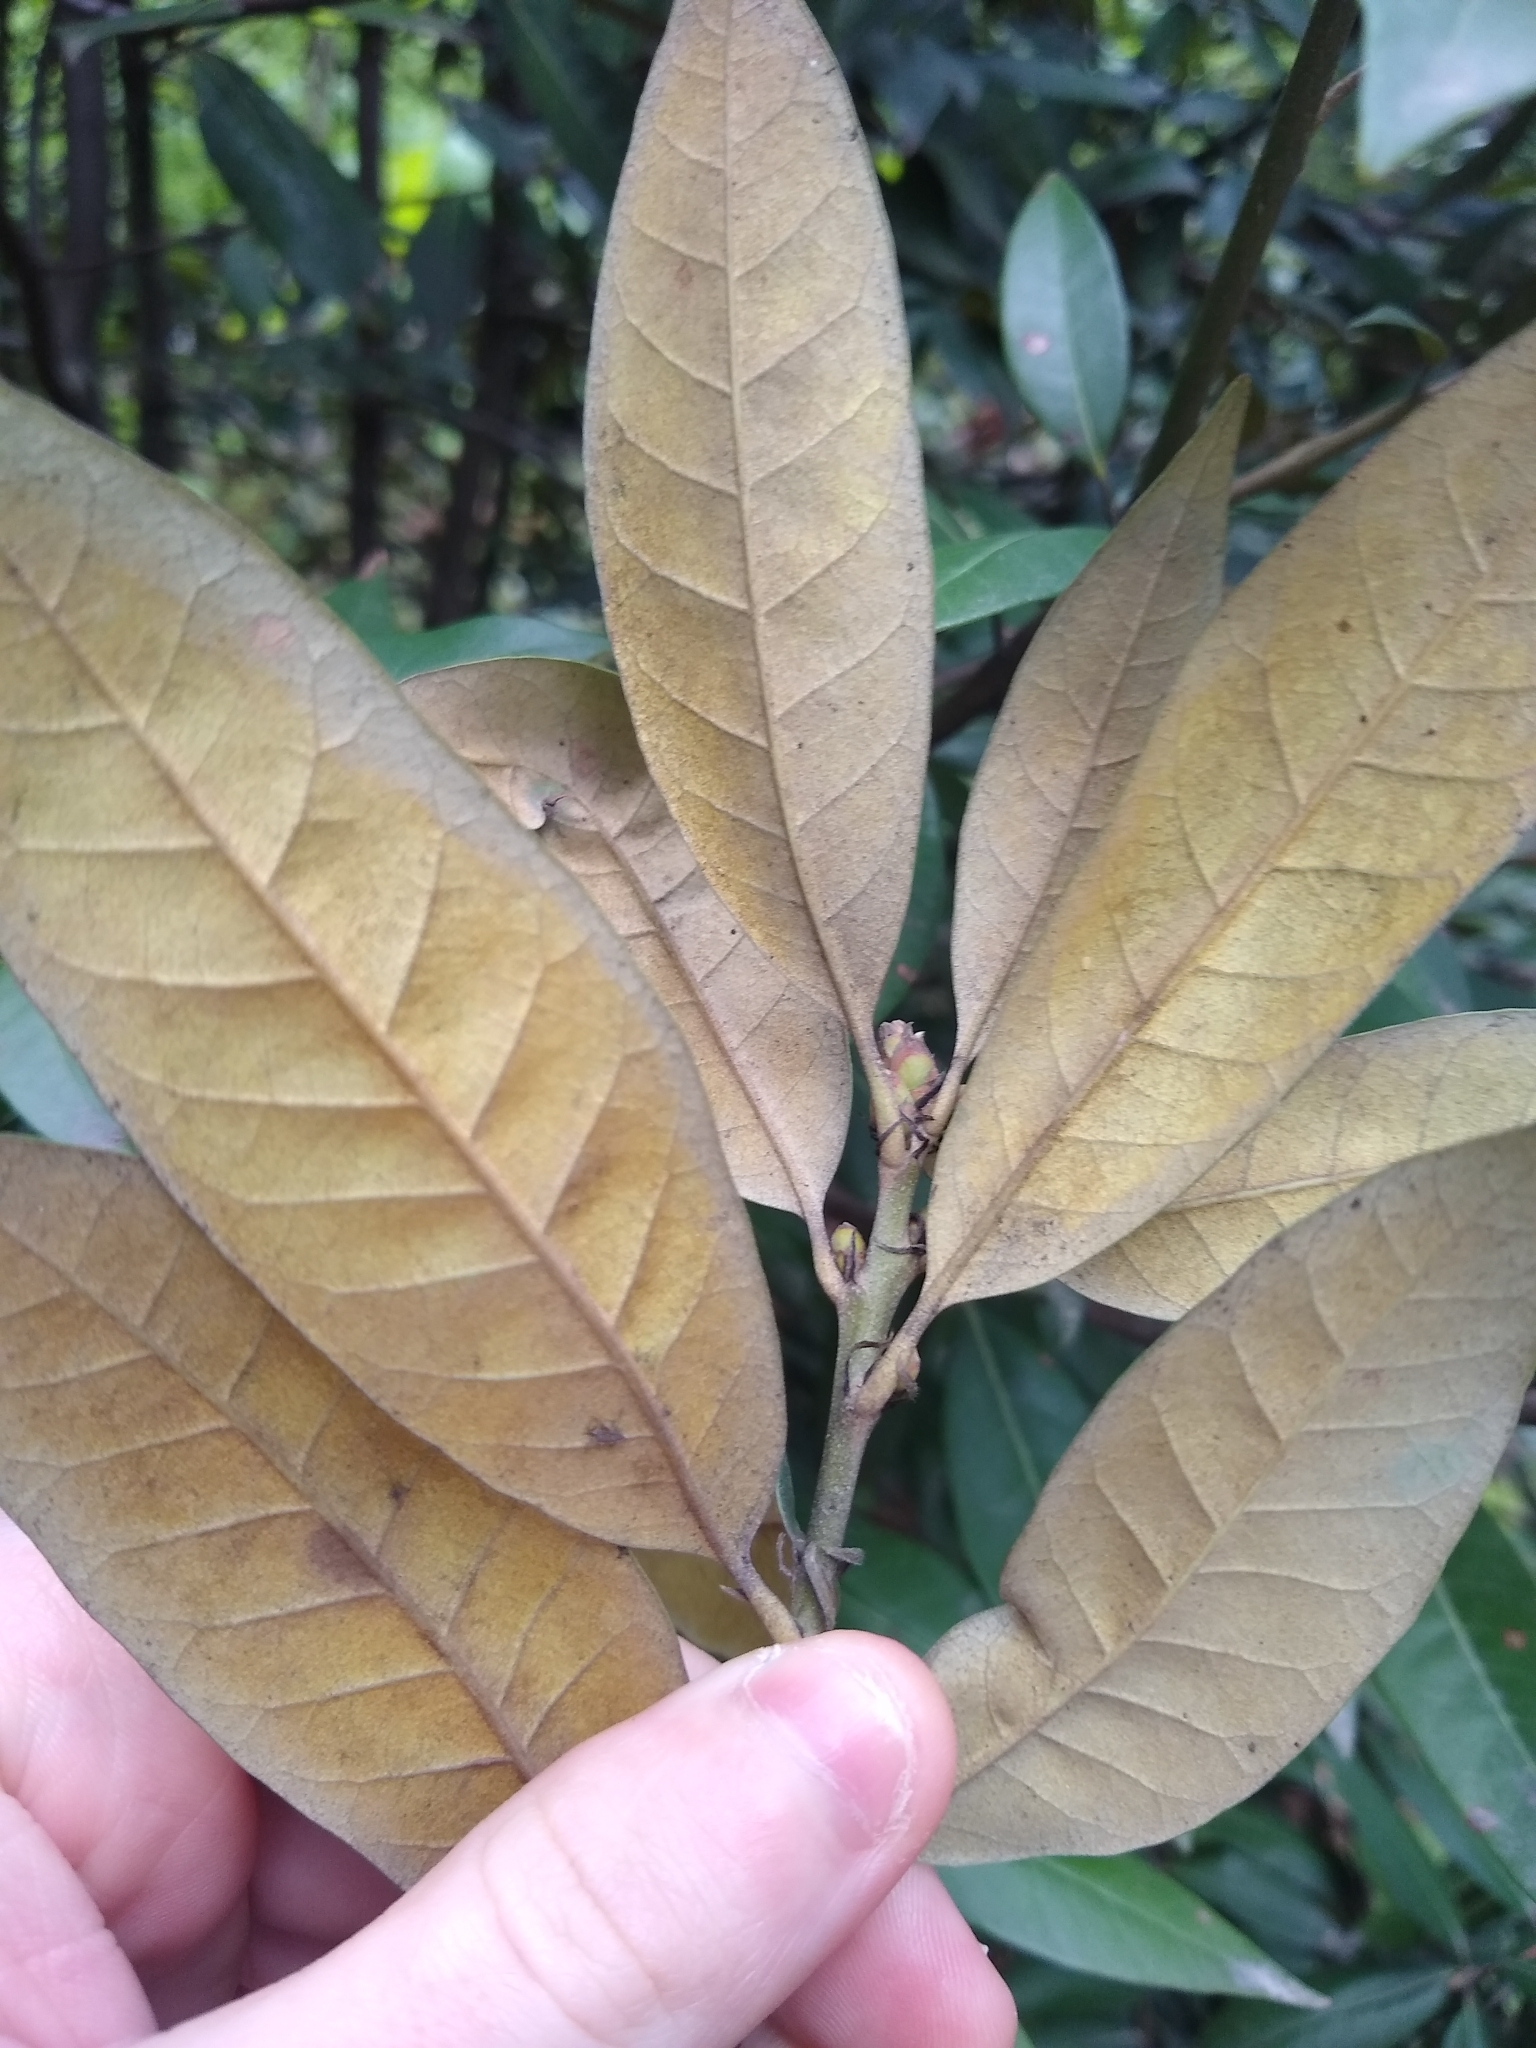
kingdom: Plantae
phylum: Tracheophyta
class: Magnoliopsida
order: Fagales
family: Fagaceae
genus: Chrysolepis
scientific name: Chrysolepis chrysophylla
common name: Giant chinquapin
